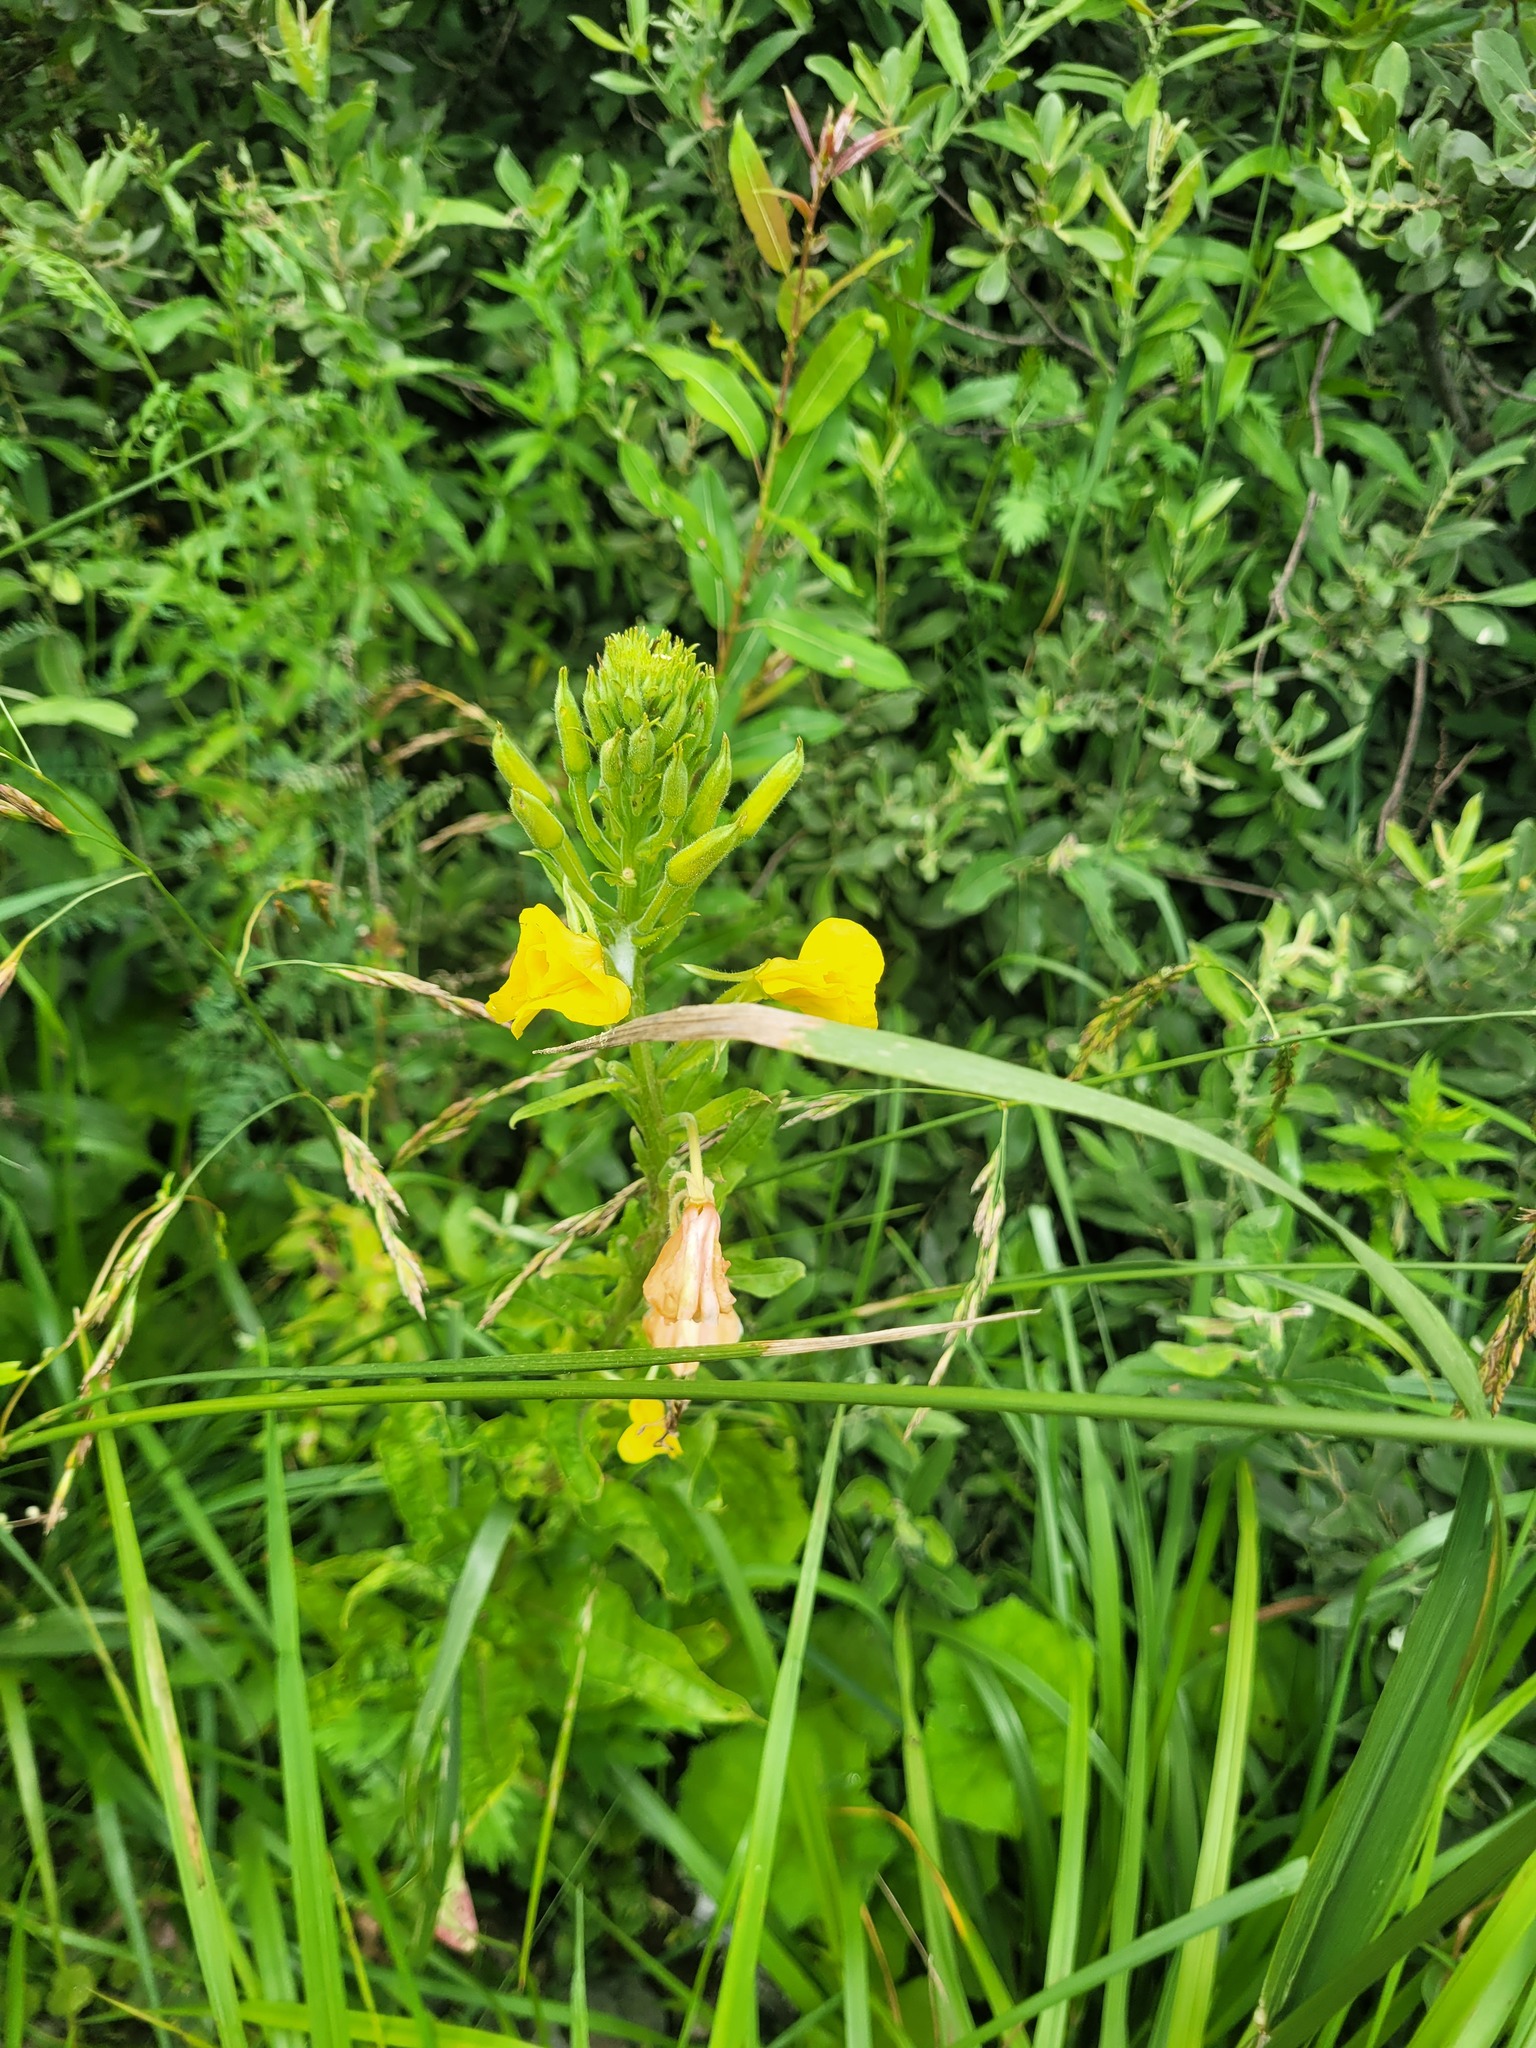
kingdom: Plantae
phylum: Tracheophyta
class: Magnoliopsida
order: Myrtales
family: Onagraceae
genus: Oenothera
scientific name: Oenothera biennis
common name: Common evening-primrose
